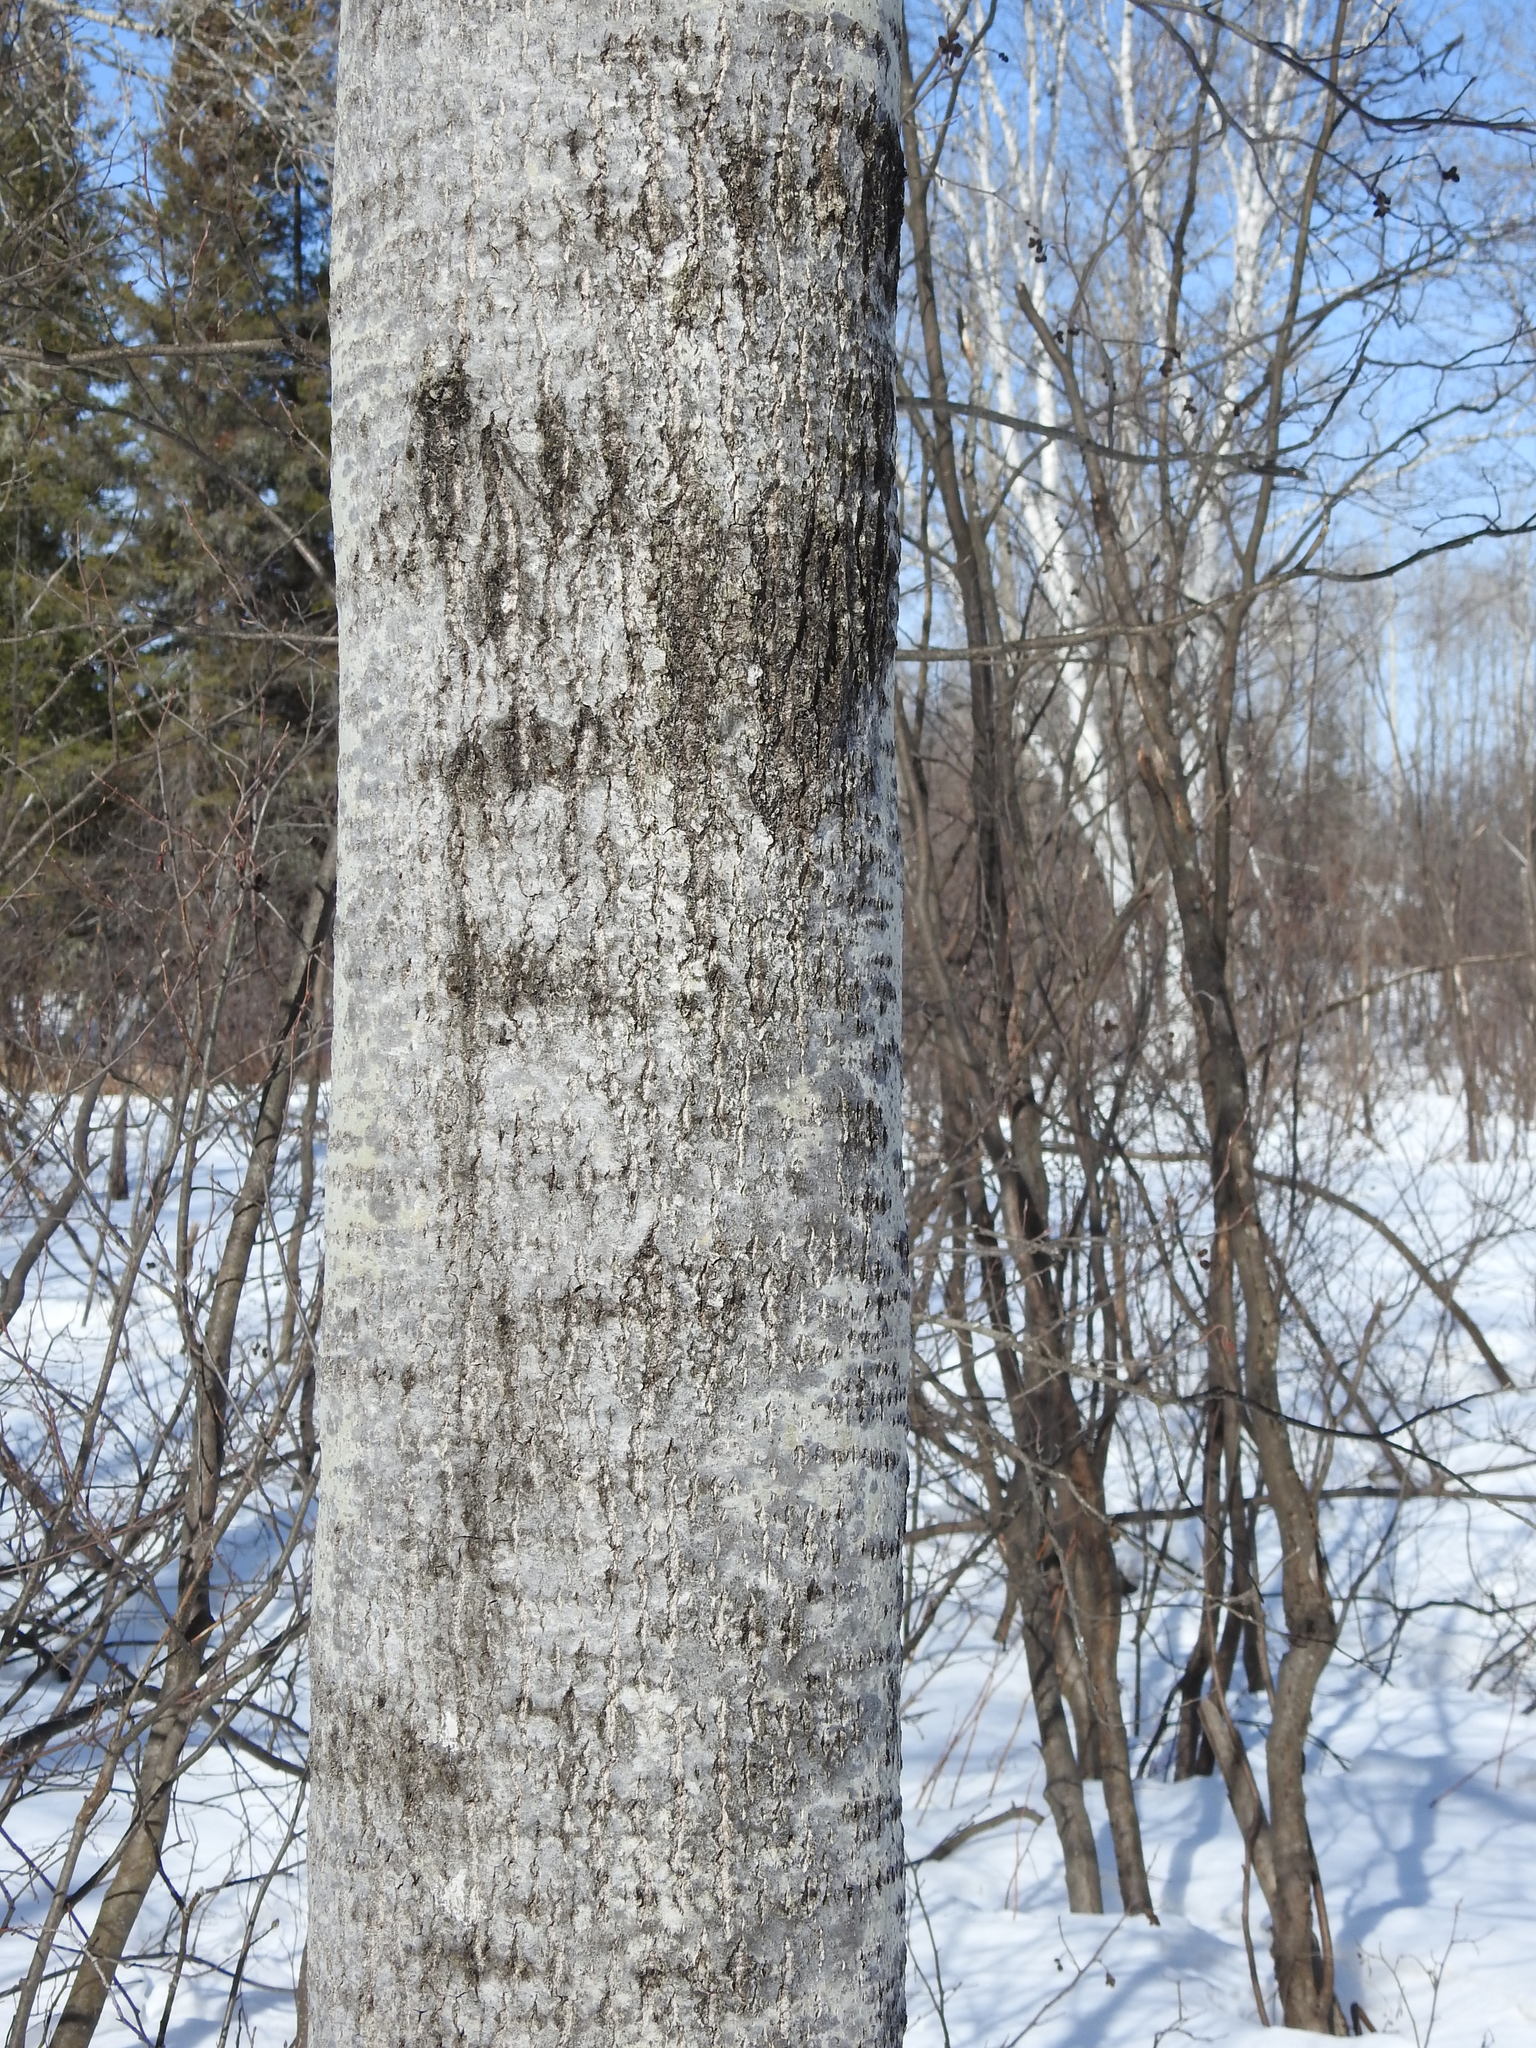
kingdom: Plantae
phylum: Tracheophyta
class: Magnoliopsida
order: Malpighiales
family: Salicaceae
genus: Populus
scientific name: Populus tremuloides
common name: Quaking aspen
